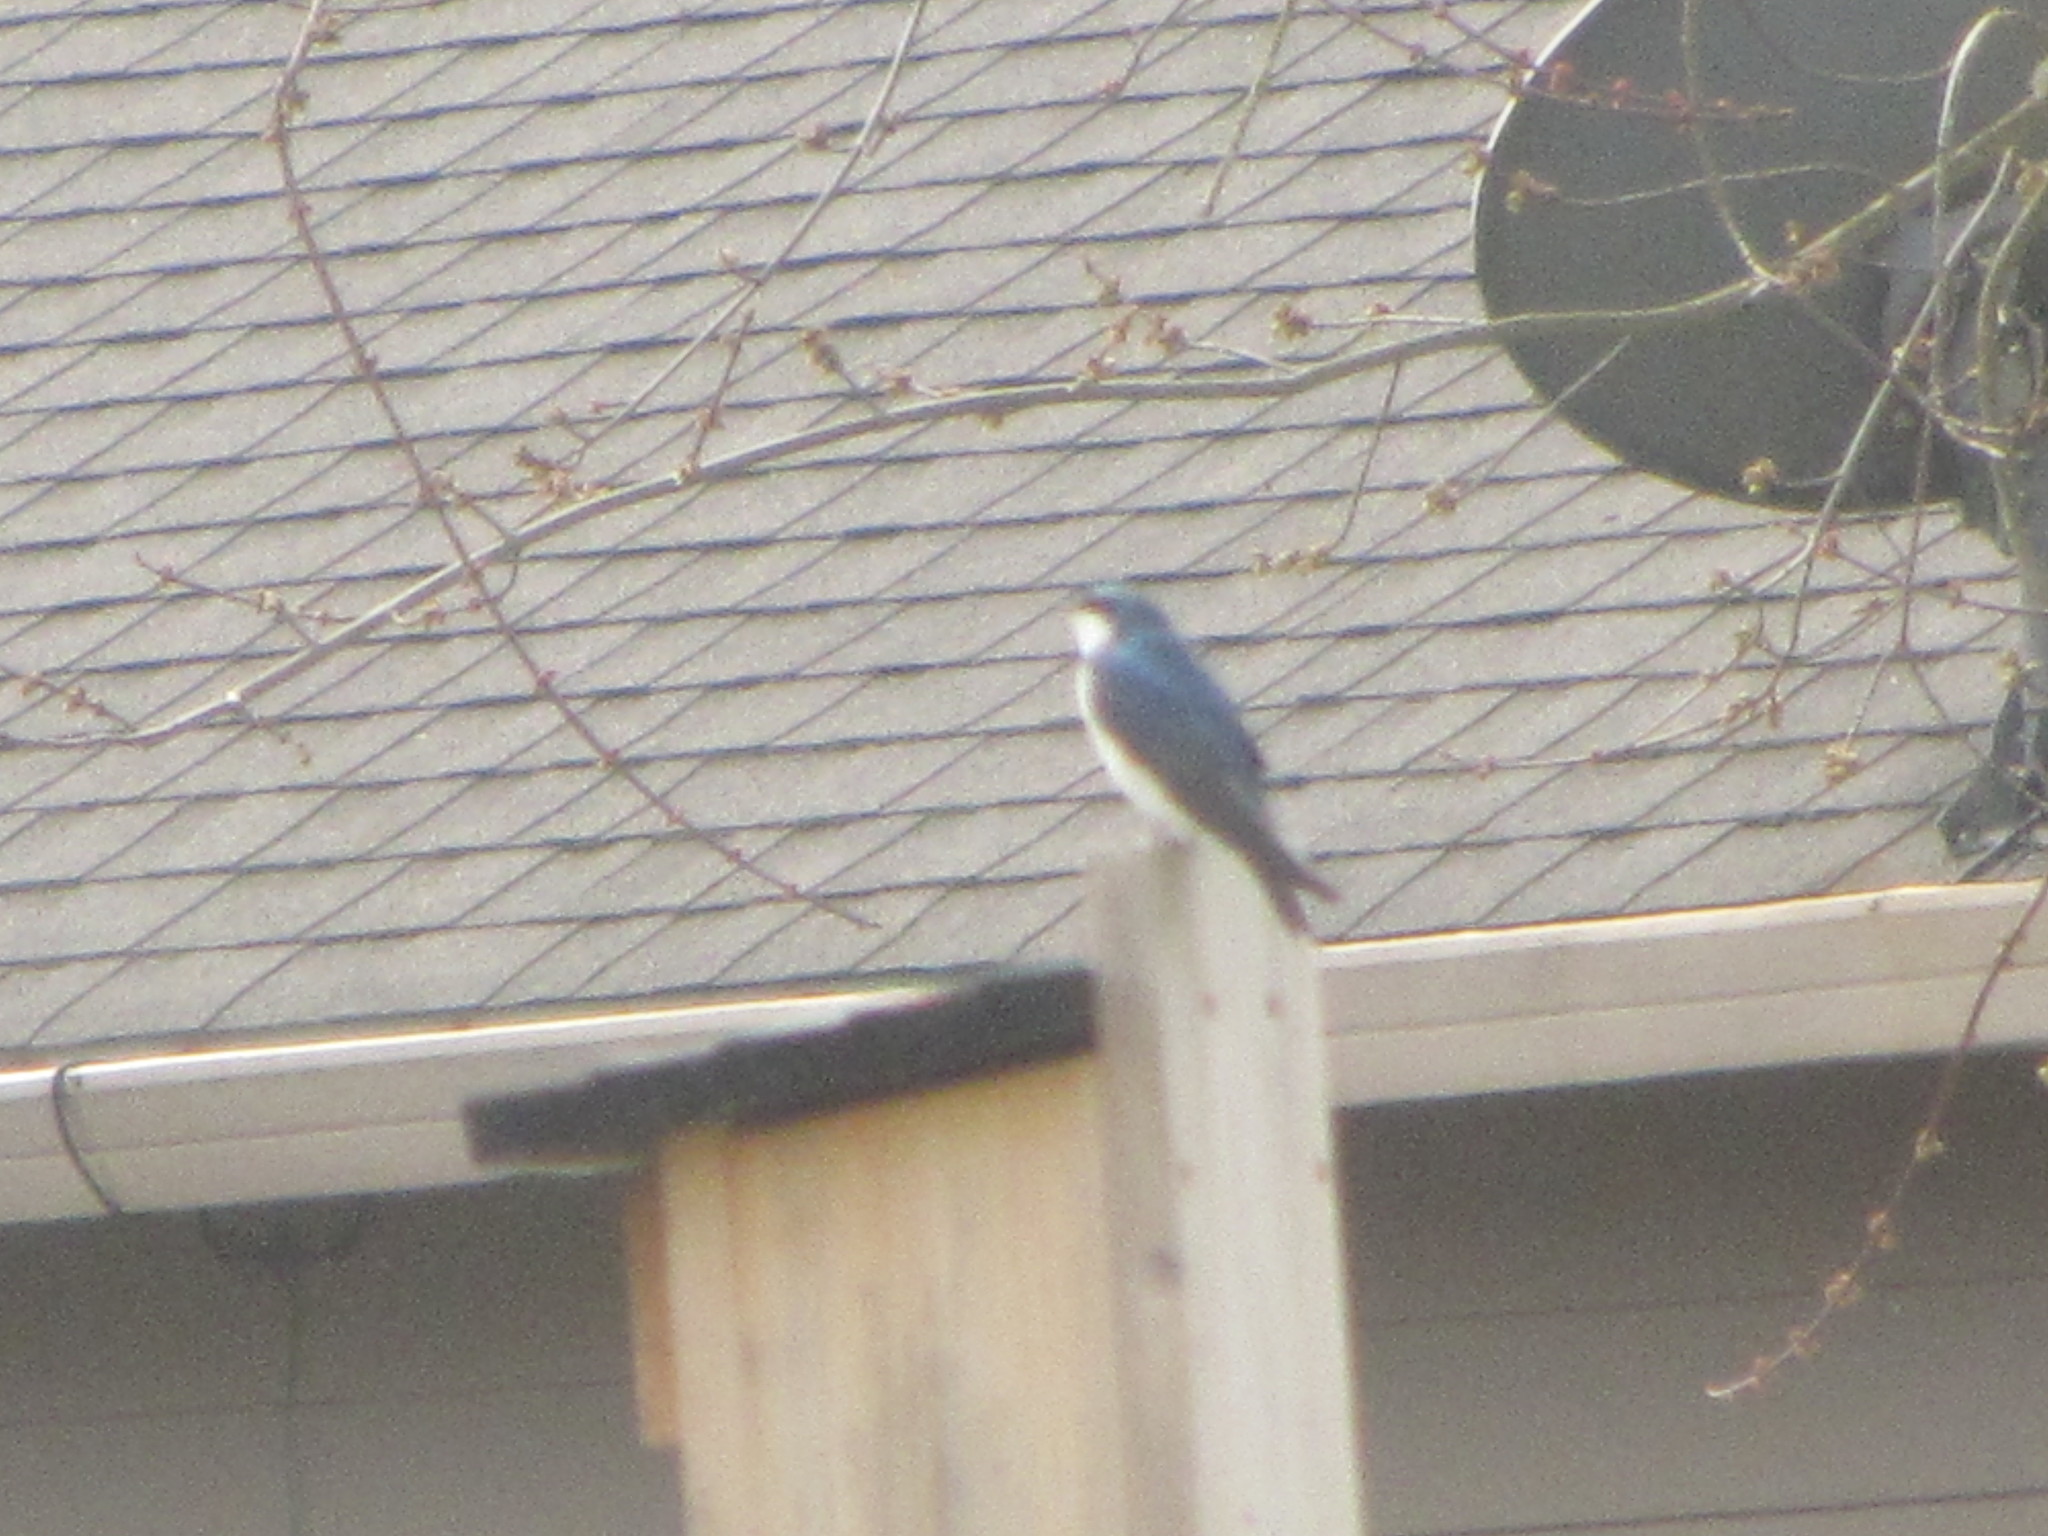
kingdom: Animalia
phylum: Chordata
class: Aves
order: Passeriformes
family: Hirundinidae
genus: Tachycineta
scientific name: Tachycineta bicolor
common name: Tree swallow
